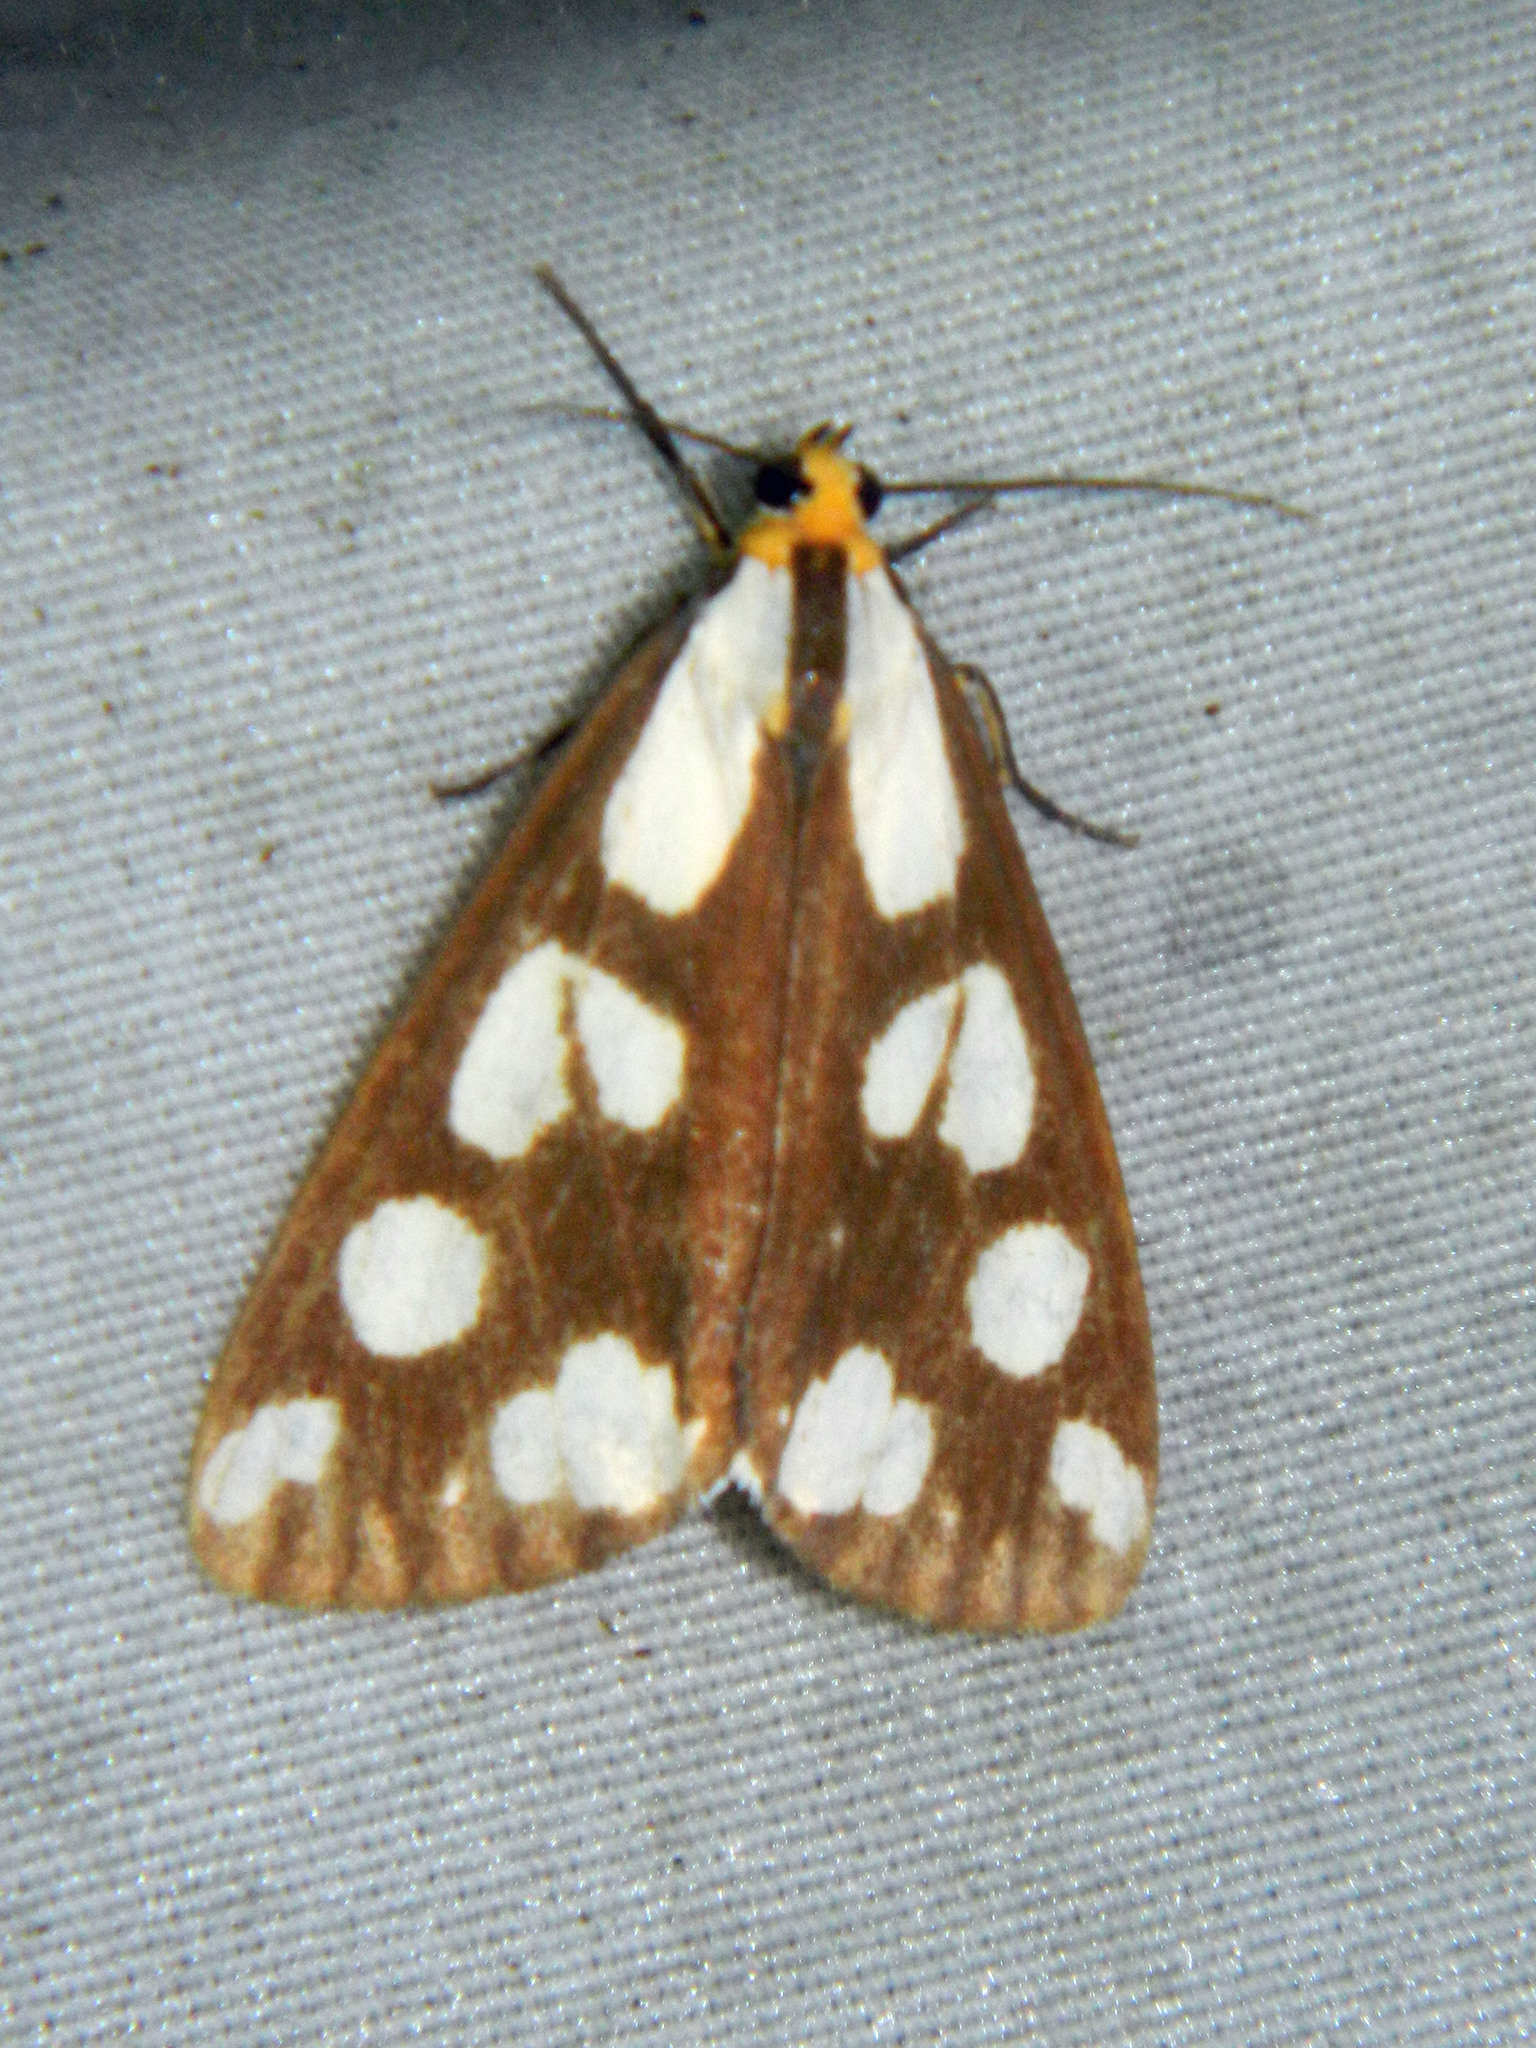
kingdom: Animalia
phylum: Arthropoda
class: Insecta
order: Lepidoptera
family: Erebidae
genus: Haploa
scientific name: Haploa confusa
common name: Confused haploa moth
